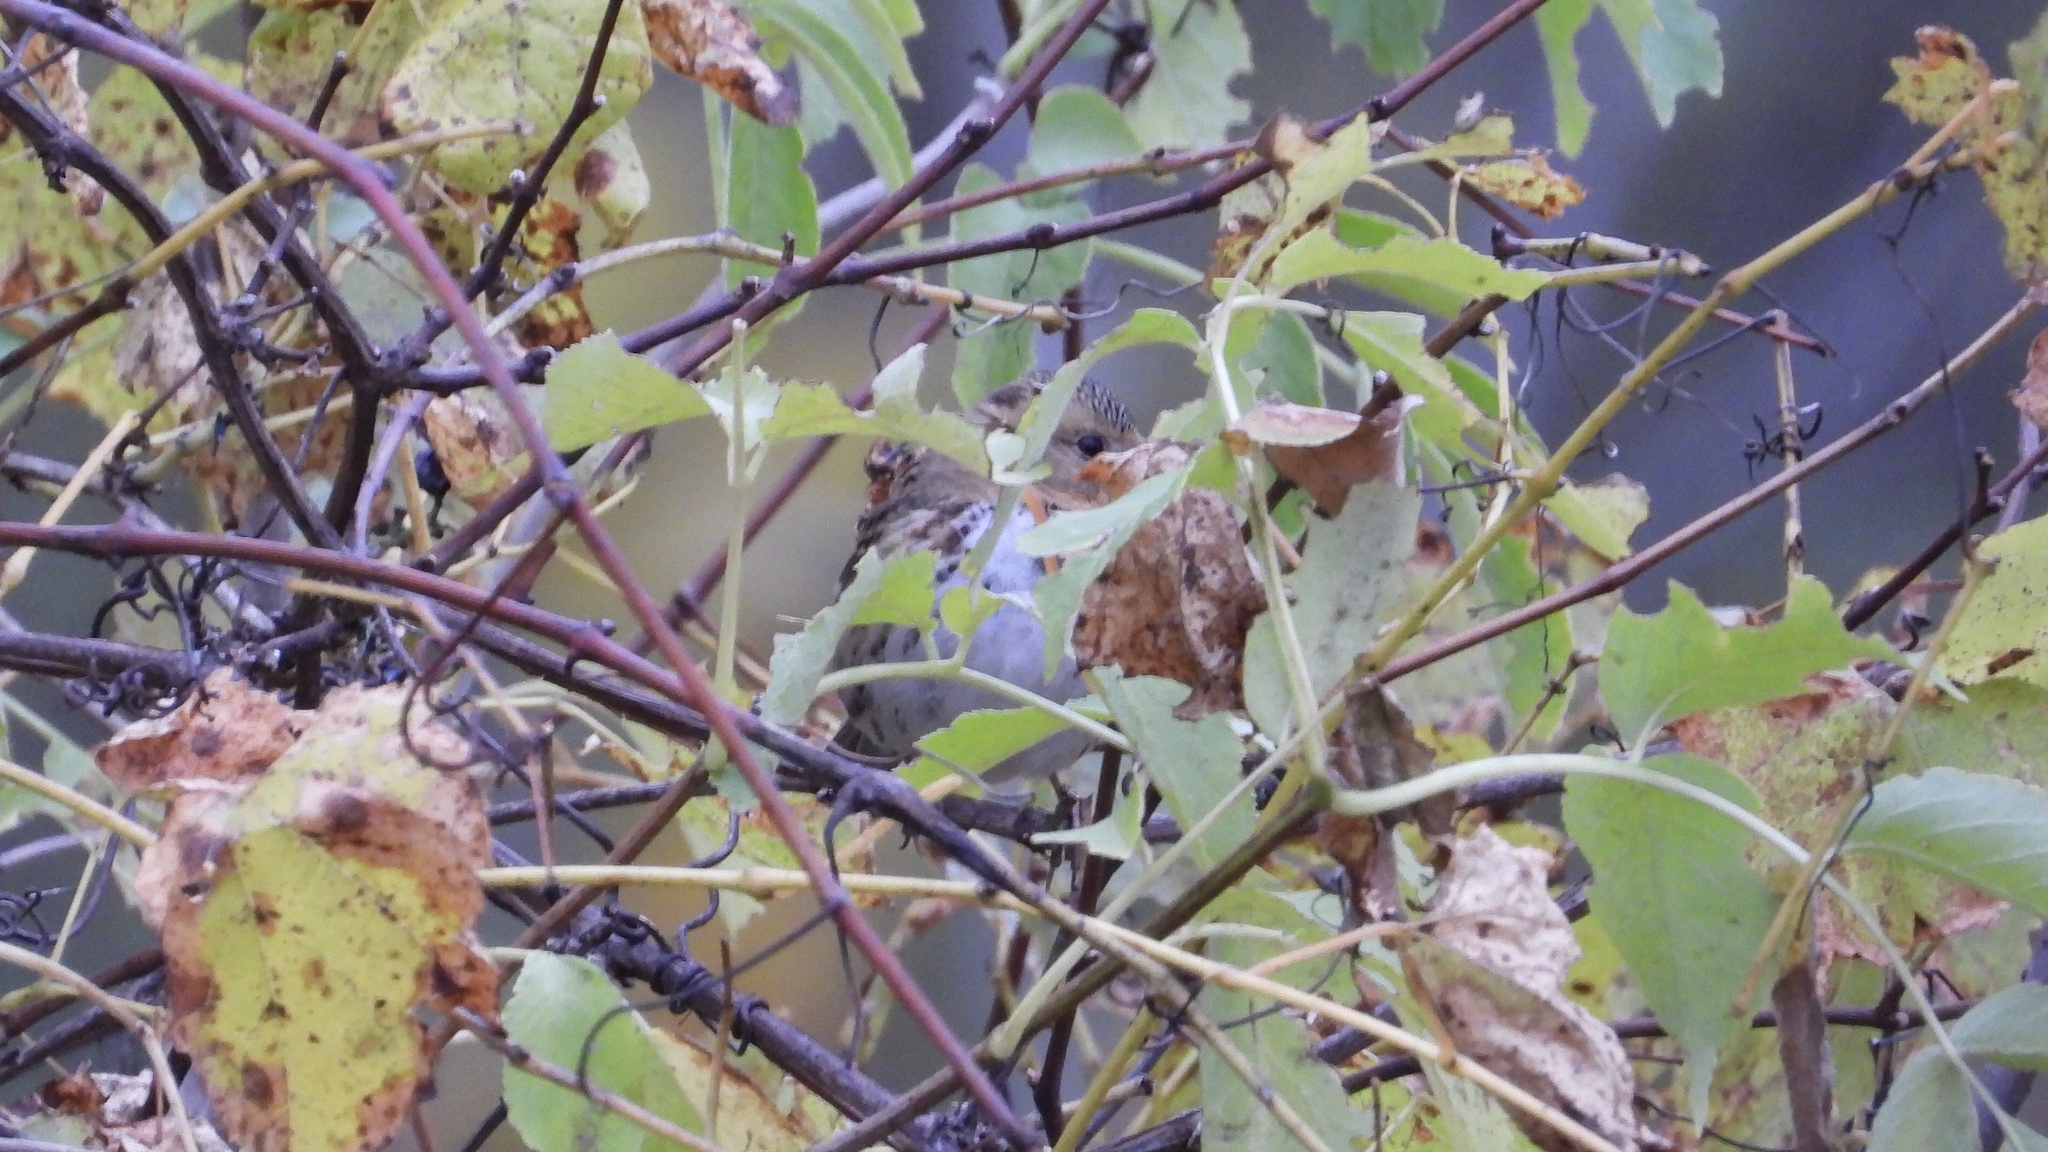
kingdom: Animalia
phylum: Chordata
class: Aves
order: Passeriformes
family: Passerellidae
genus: Zonotrichia
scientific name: Zonotrichia querula
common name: Harris's sparrow
